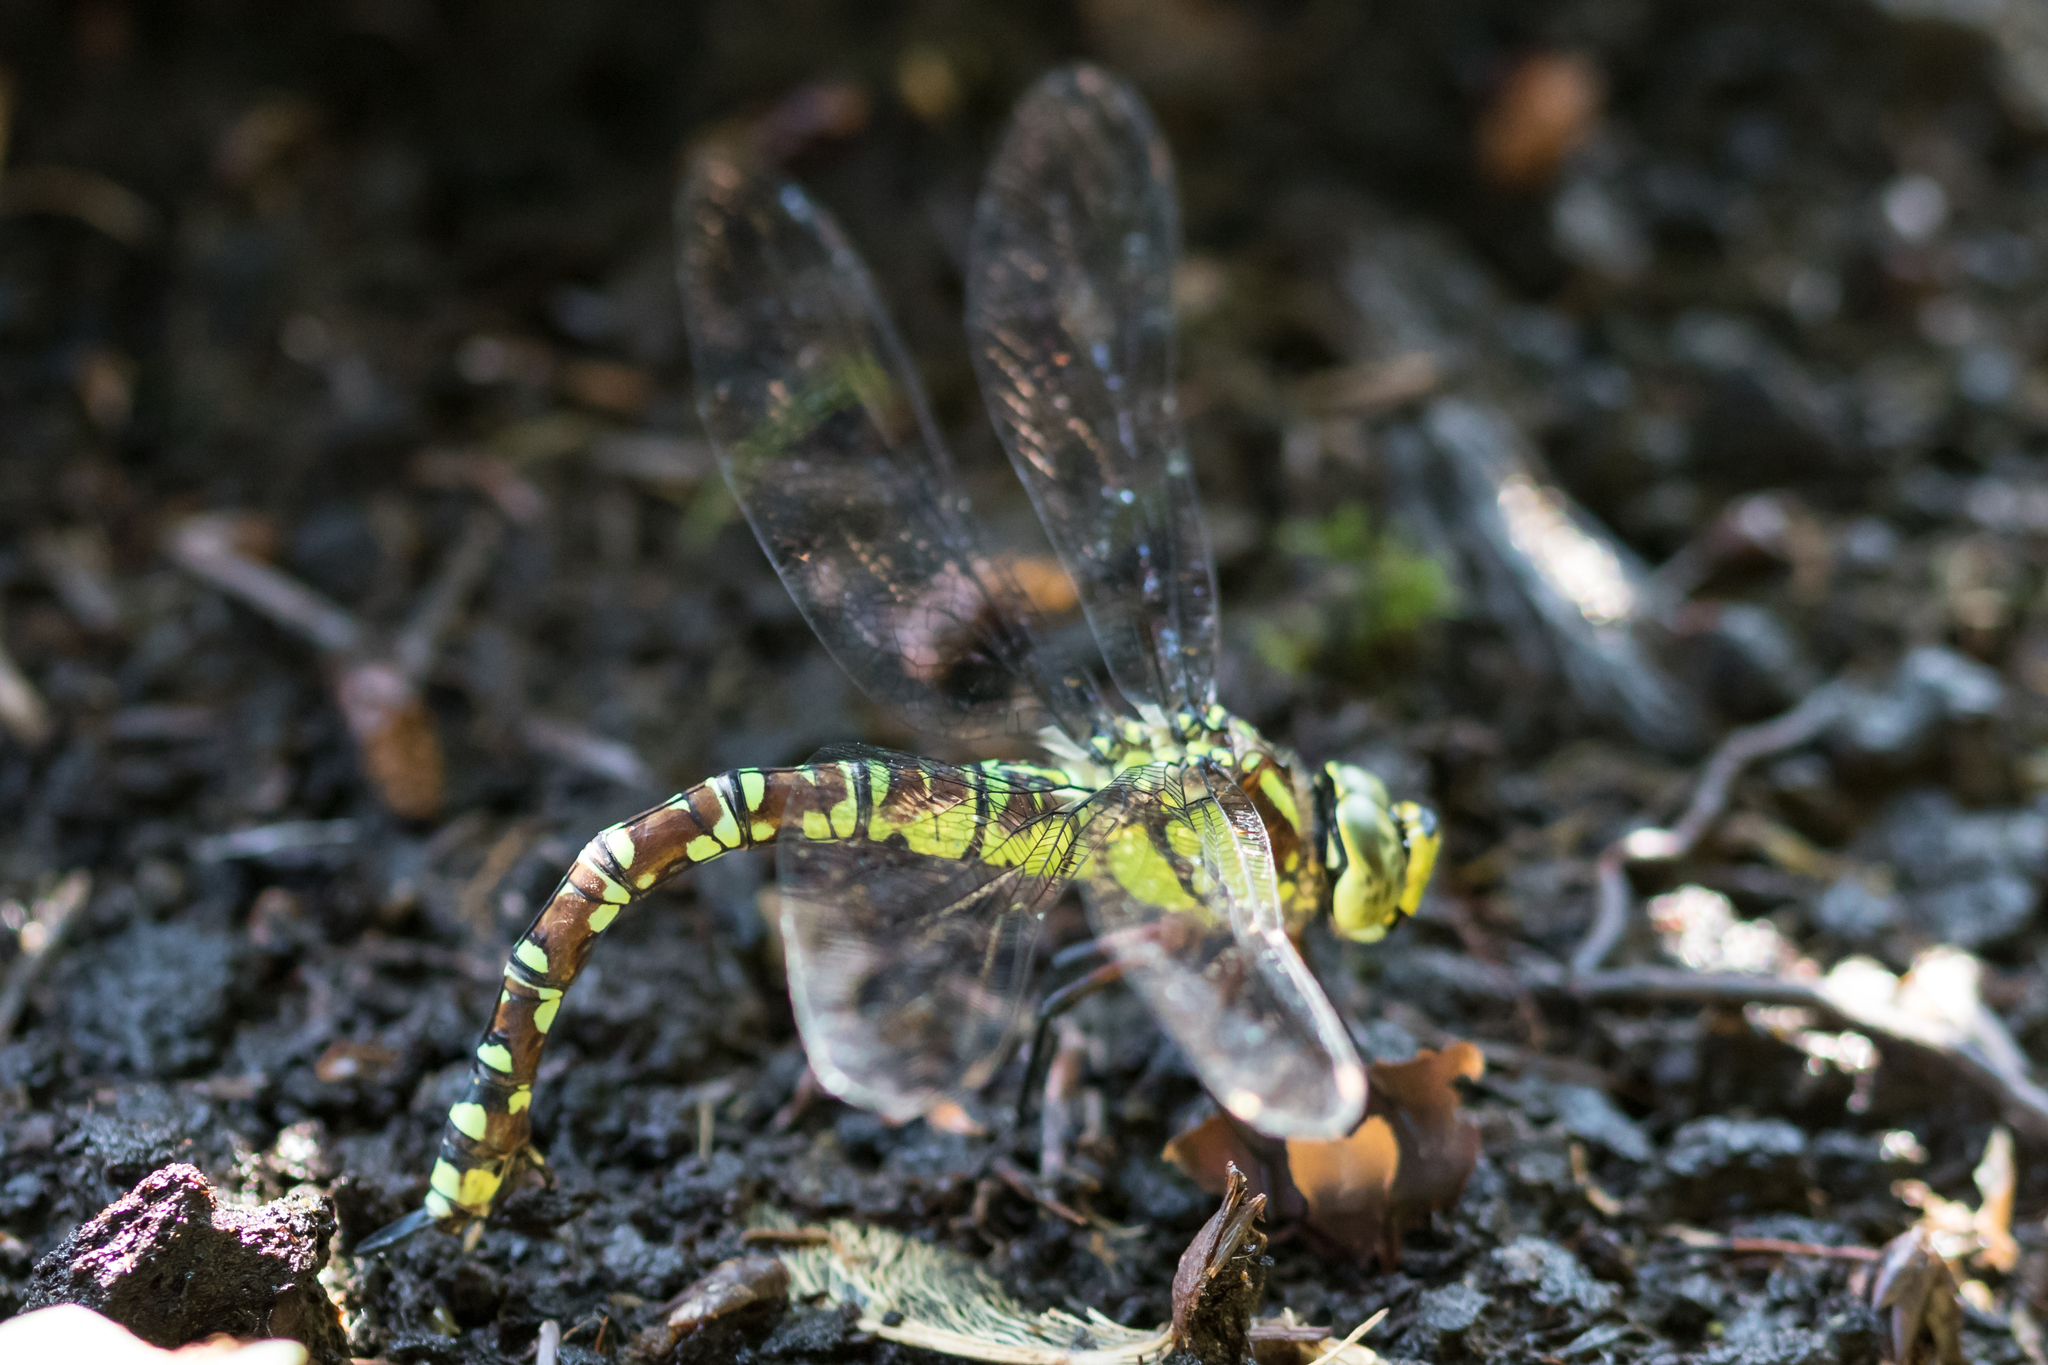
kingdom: Animalia
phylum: Arthropoda
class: Insecta
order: Odonata
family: Aeshnidae
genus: Aeshna
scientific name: Aeshna cyanea
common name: Southern hawker
